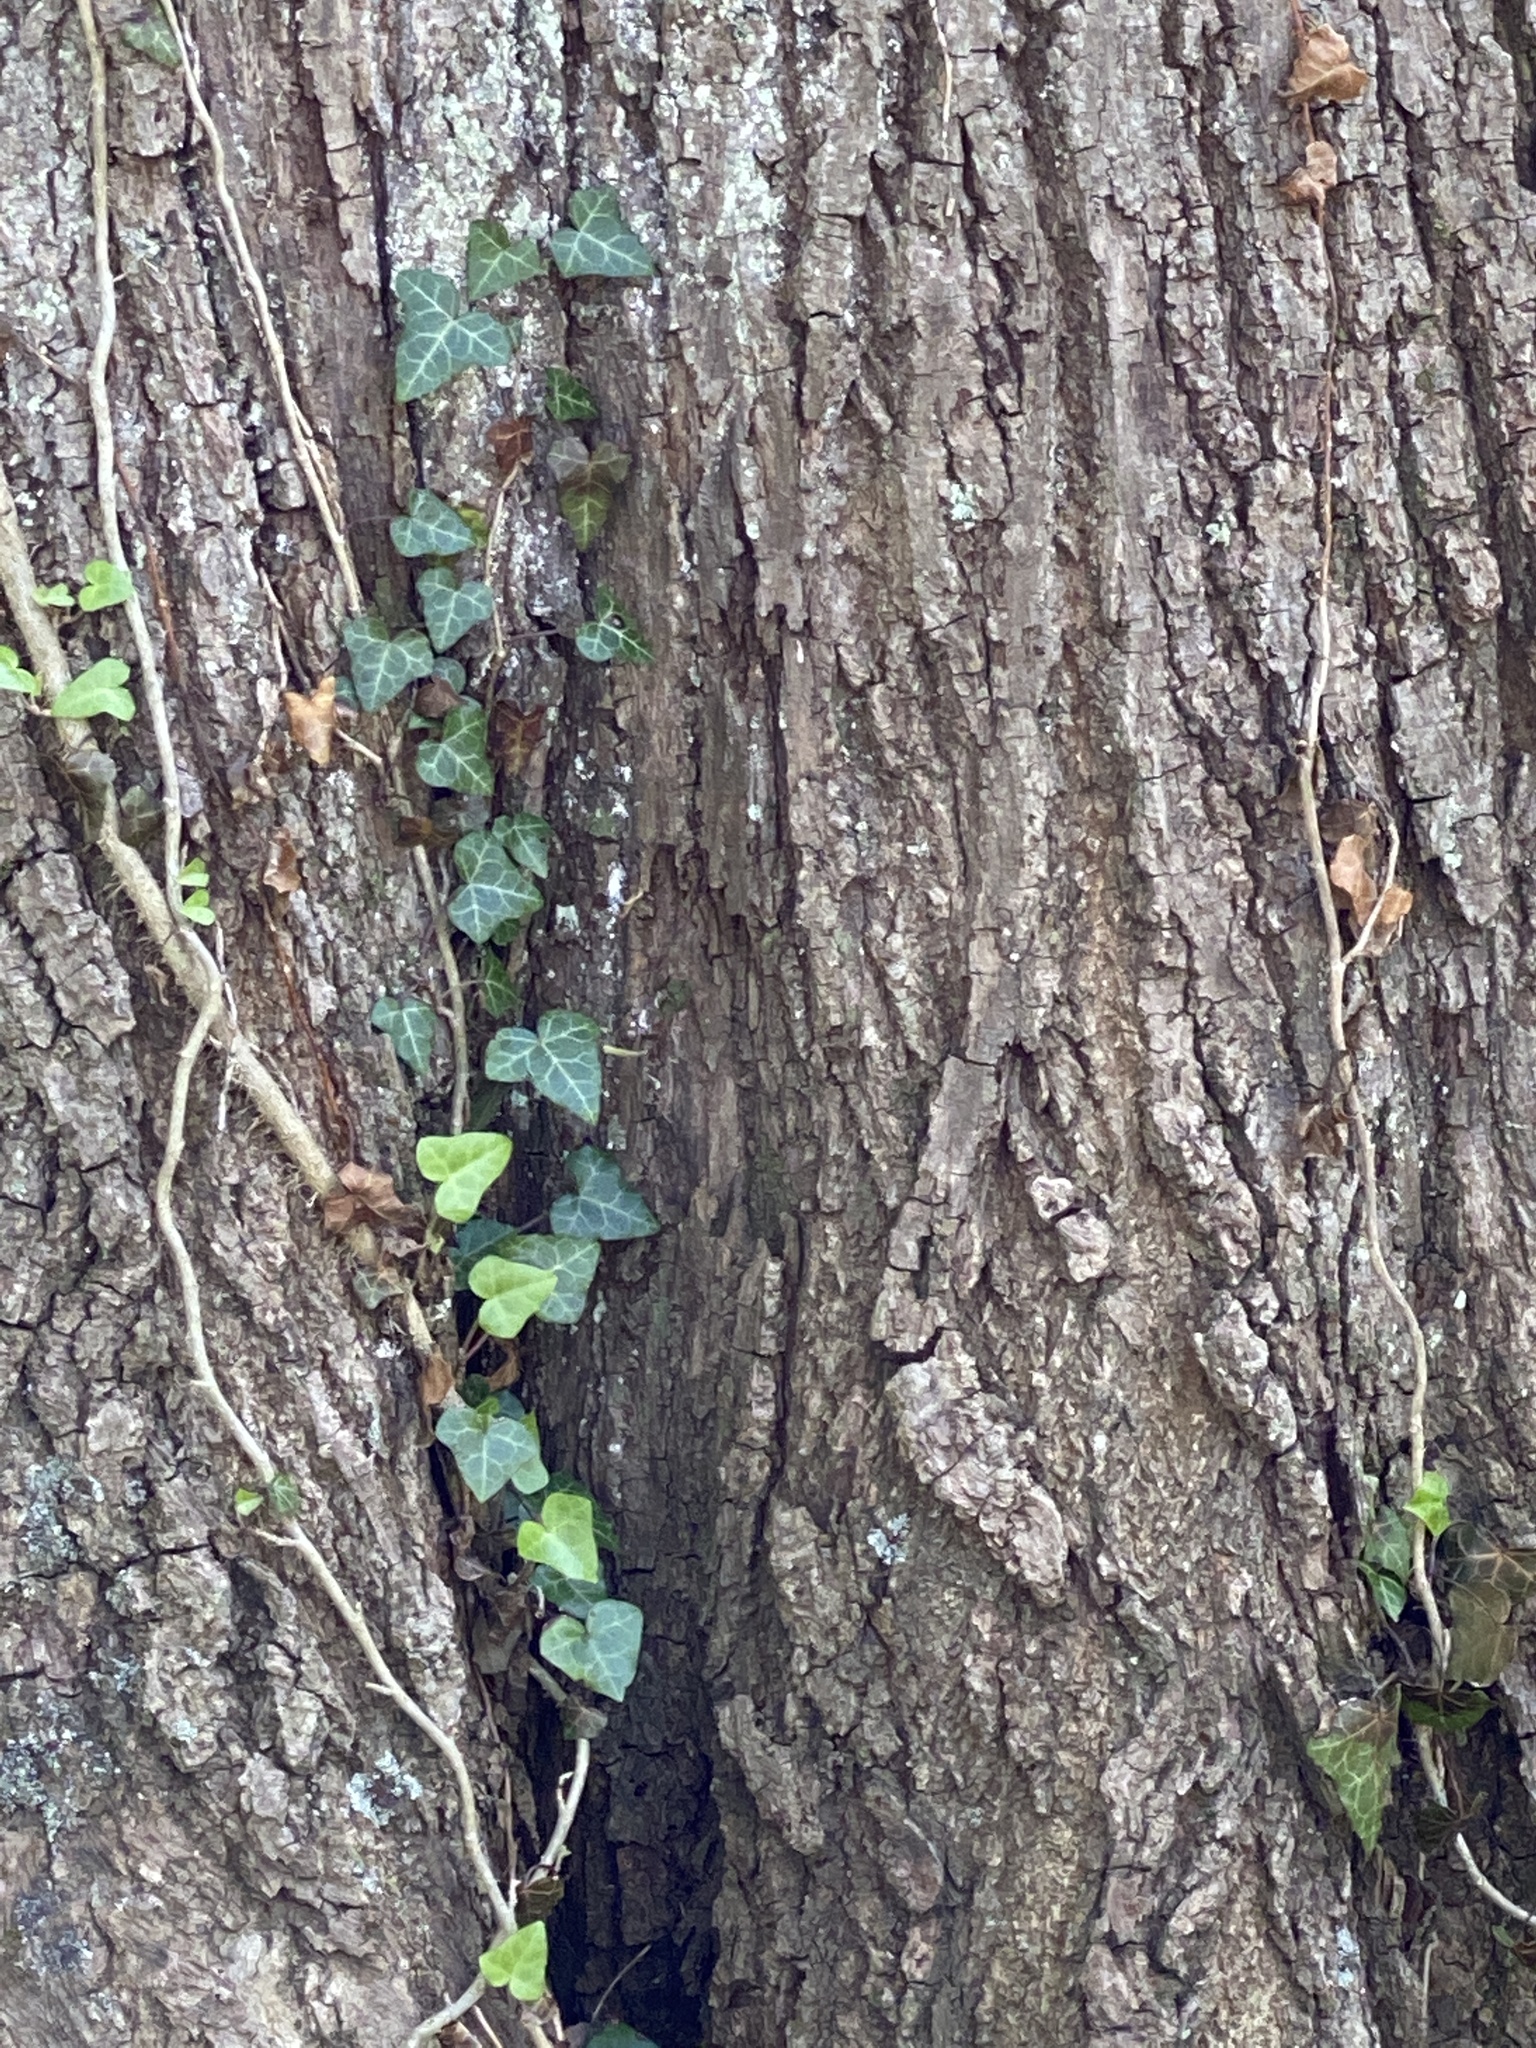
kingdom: Plantae
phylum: Tracheophyta
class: Magnoliopsida
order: Apiales
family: Araliaceae
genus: Hedera
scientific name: Hedera helix
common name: Ivy
